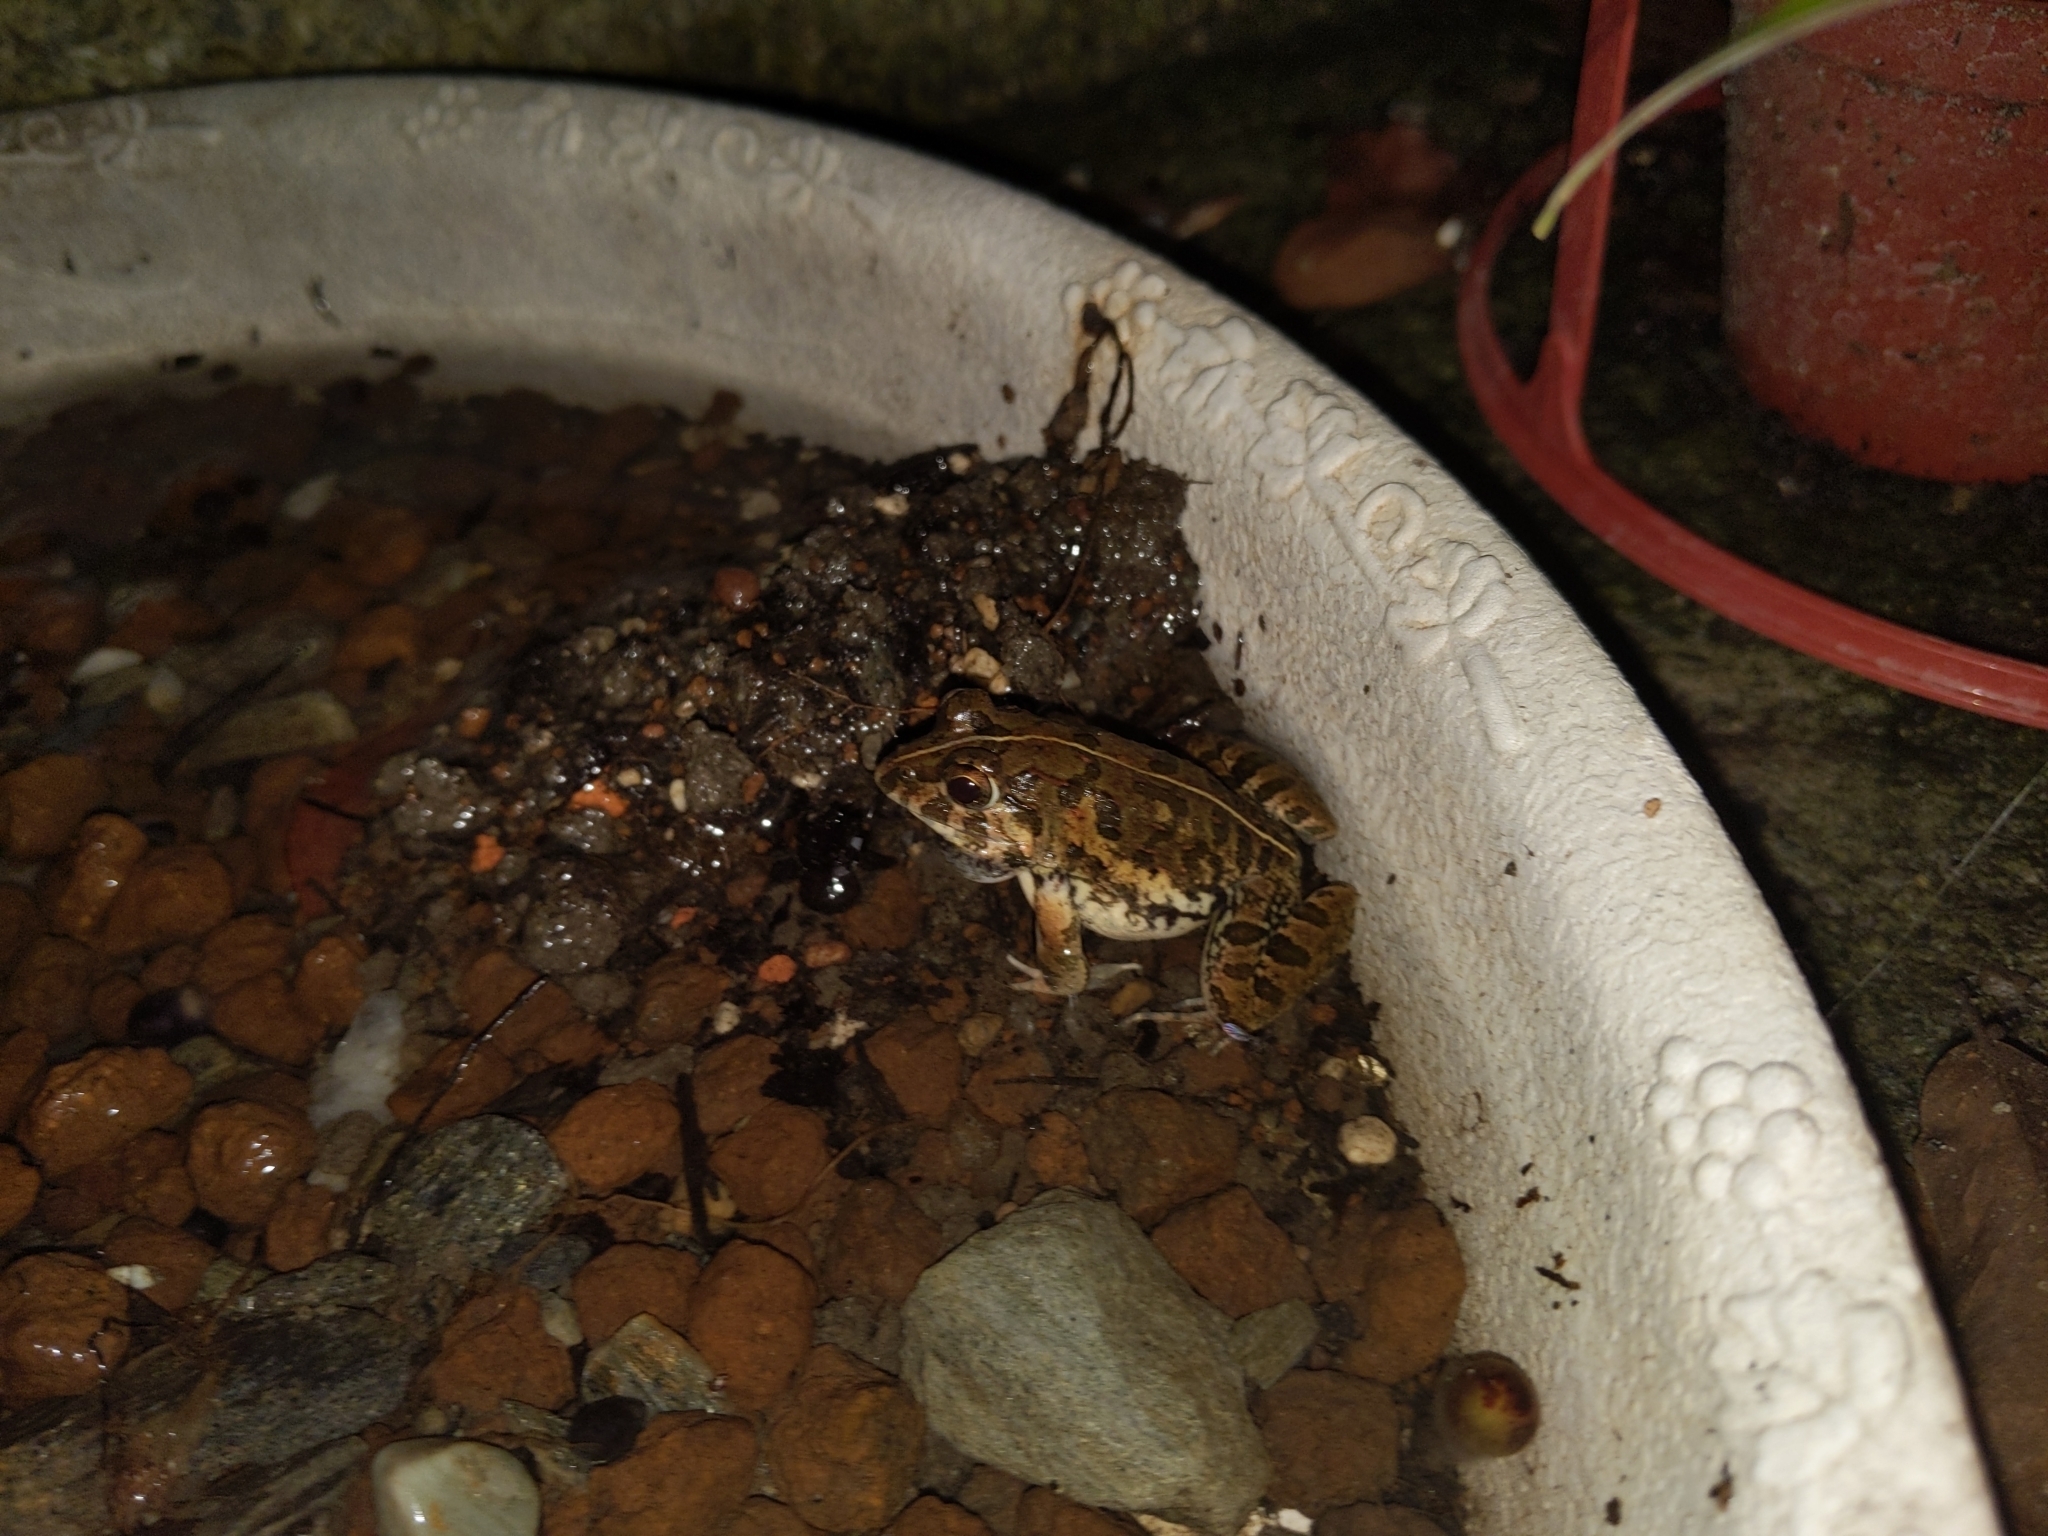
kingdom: Animalia
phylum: Chordata
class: Amphibia
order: Anura
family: Dicroglossidae
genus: Fejervarya
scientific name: Fejervarya limnocharis
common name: Asian grass frog/common pond frog/field frog/grass frog/indian rice frog
